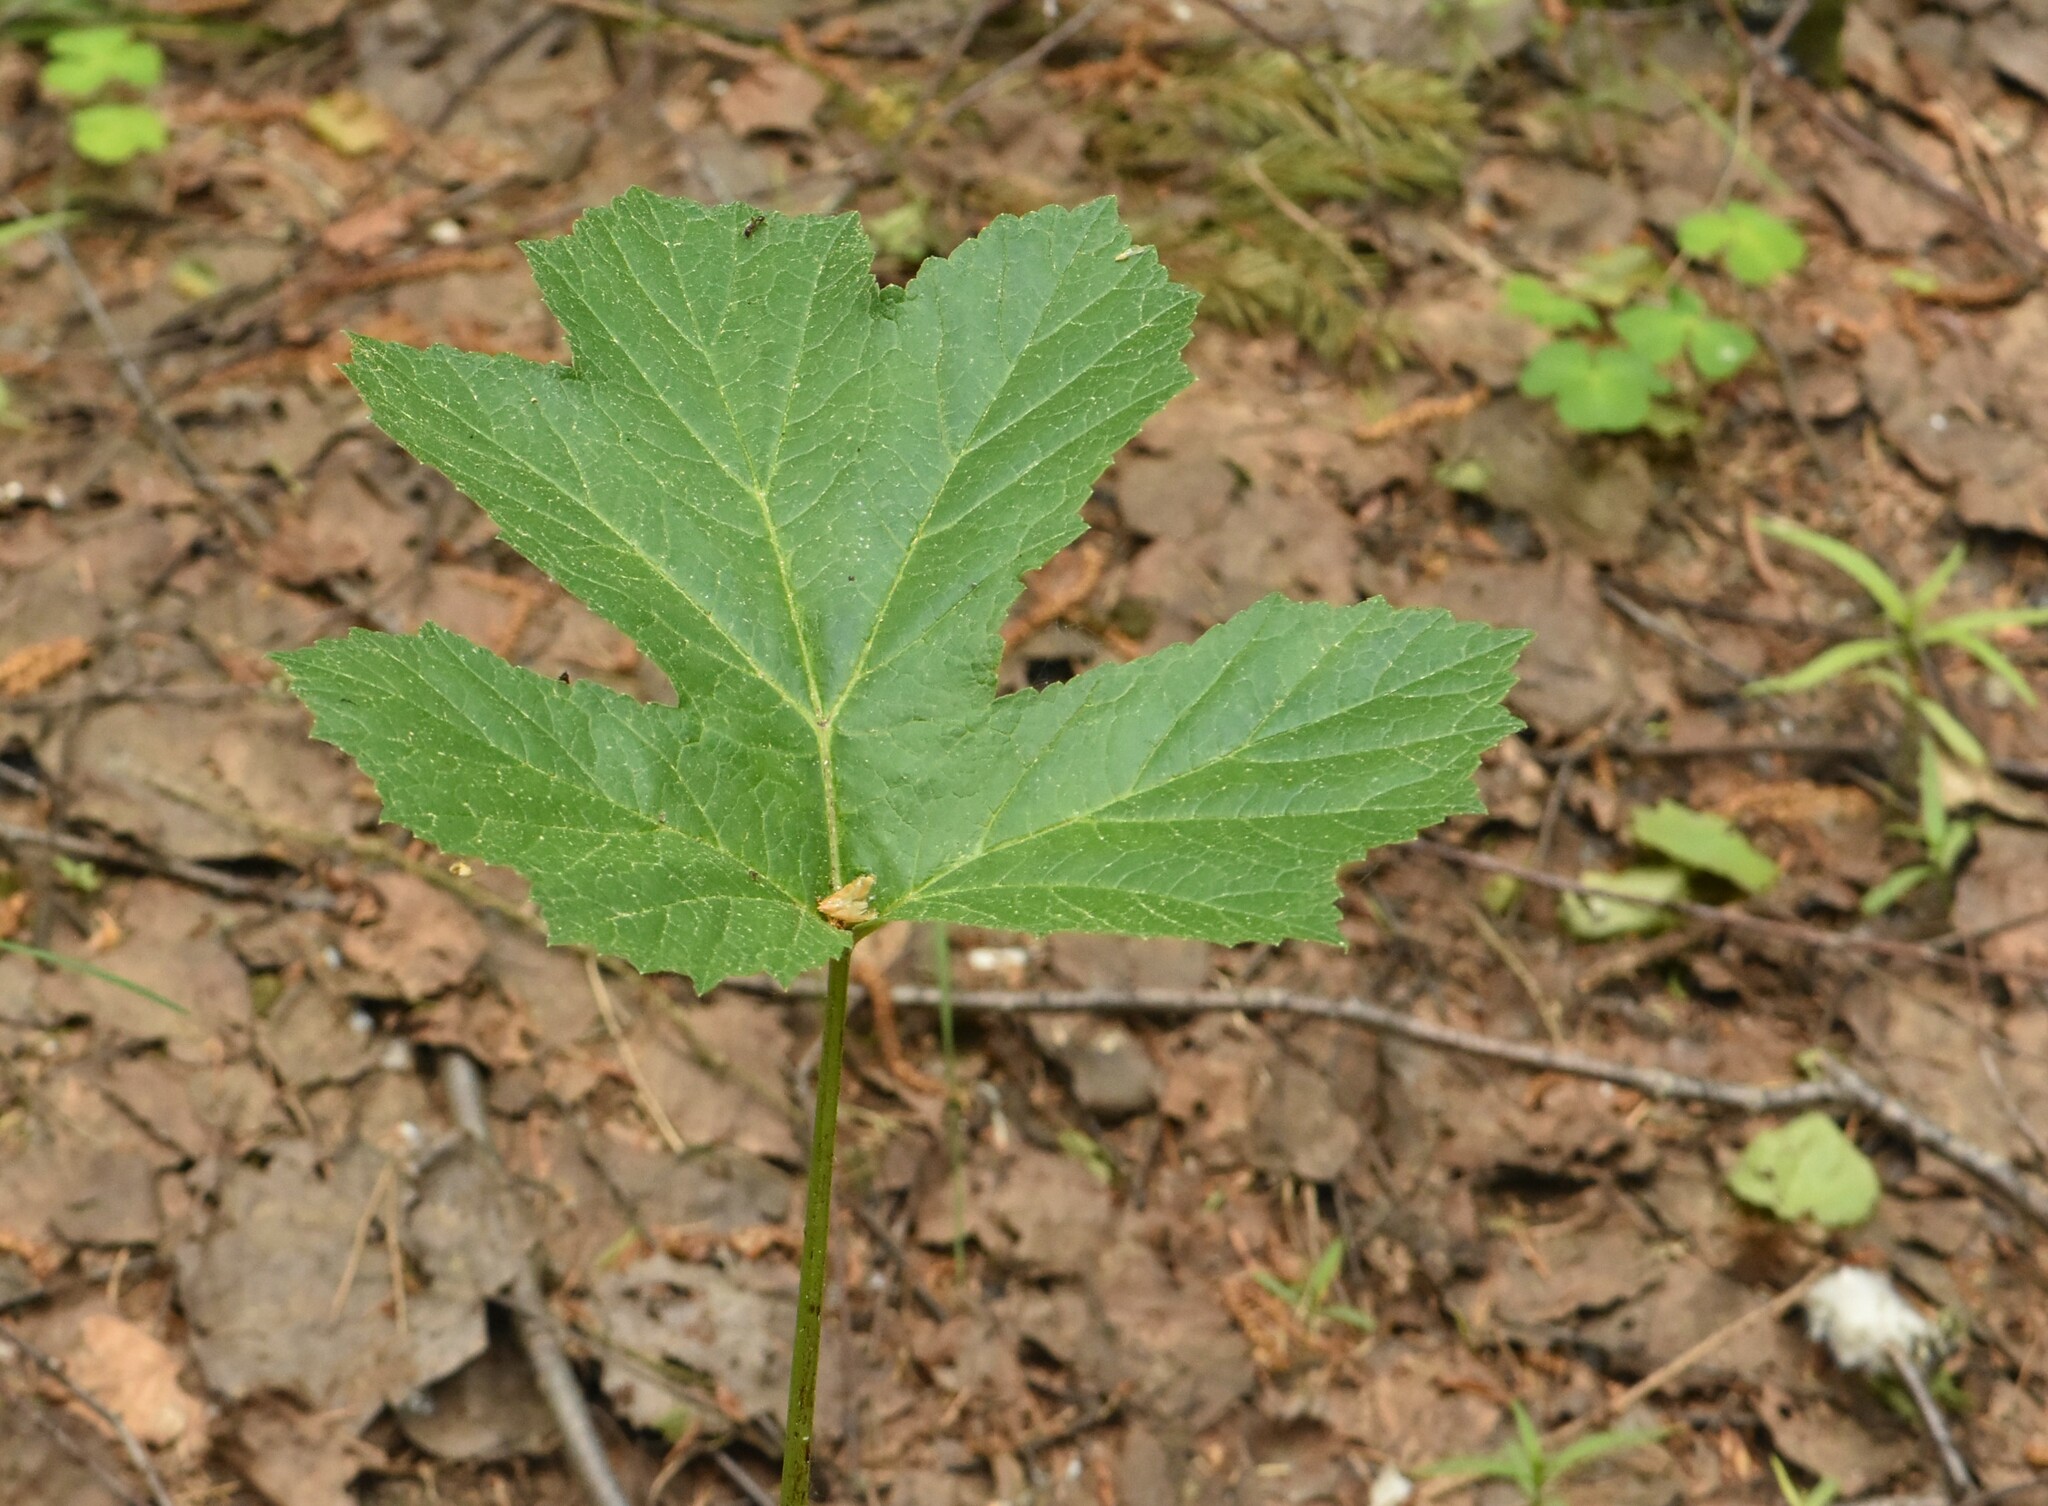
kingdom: Plantae
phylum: Tracheophyta
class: Magnoliopsida
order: Apiales
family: Apiaceae
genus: Heracleum
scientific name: Heracleum sphondylium
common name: Hogweed
